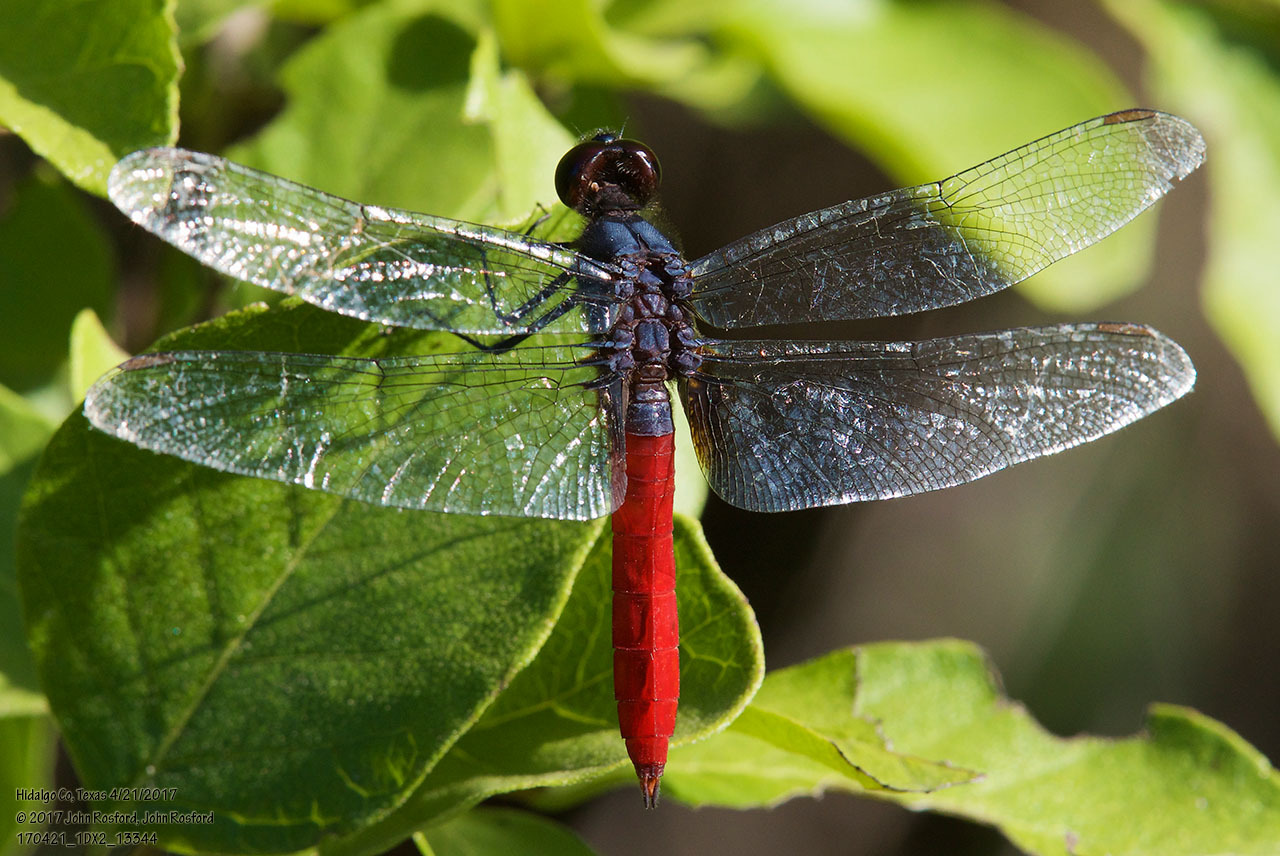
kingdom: Animalia
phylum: Arthropoda
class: Insecta
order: Odonata
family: Libellulidae
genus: Planiplax
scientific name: Planiplax sanguiniventris
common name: Mexican scarlet-tail
